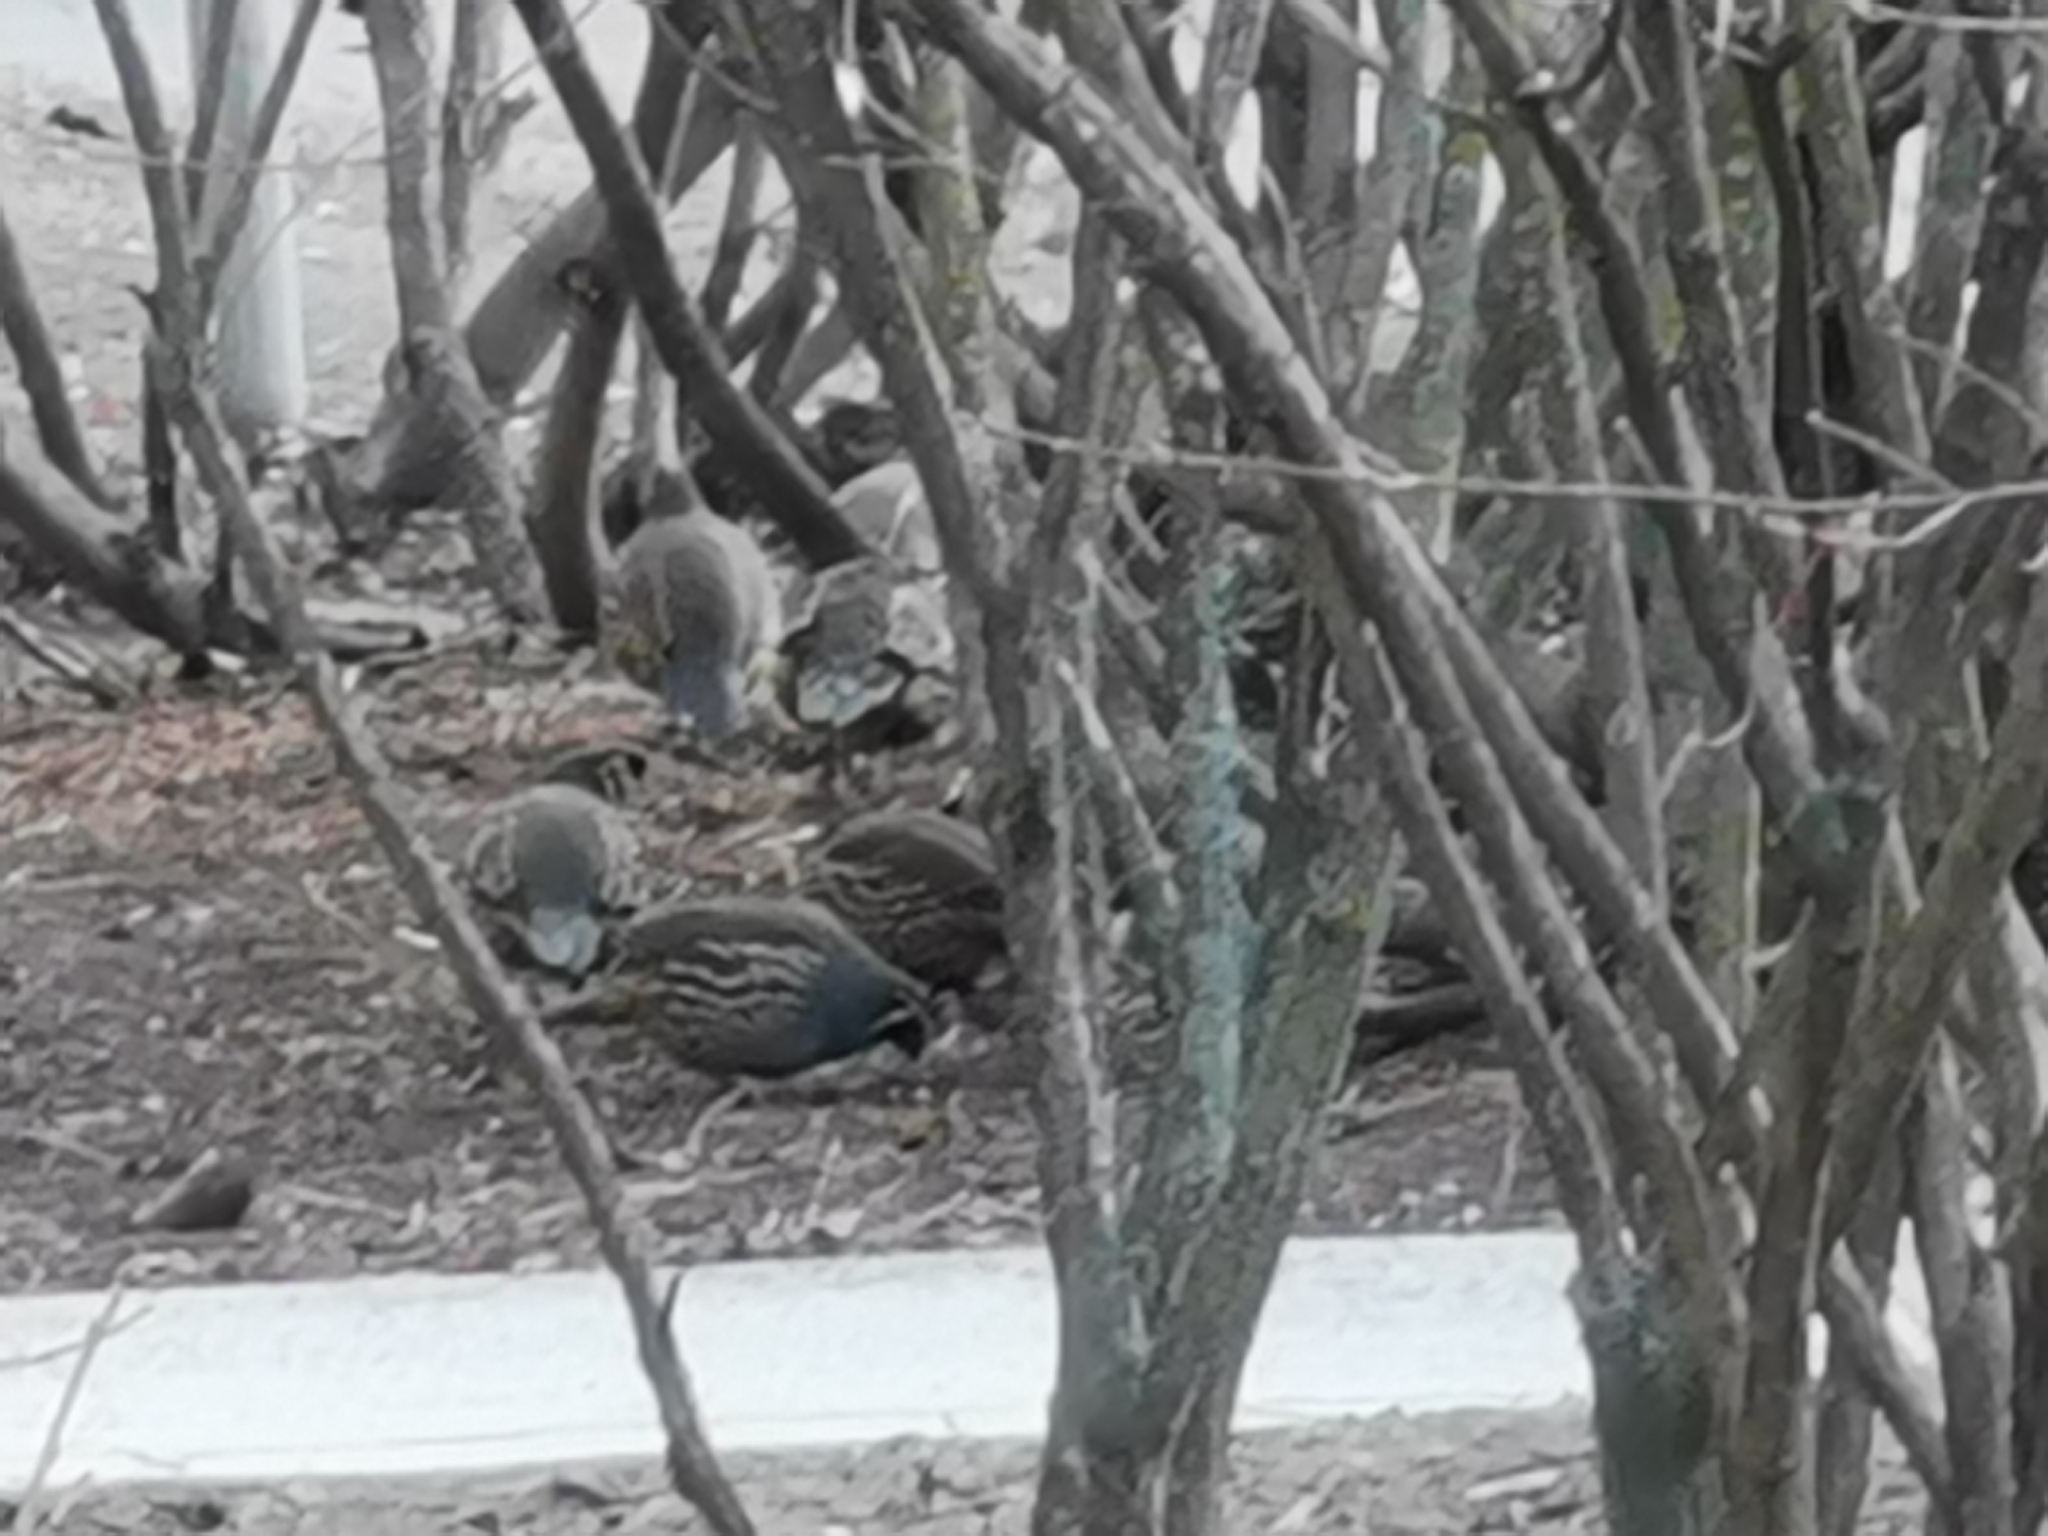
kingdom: Animalia
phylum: Chordata
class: Aves
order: Galliformes
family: Odontophoridae
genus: Callipepla
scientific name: Callipepla californica
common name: California quail
